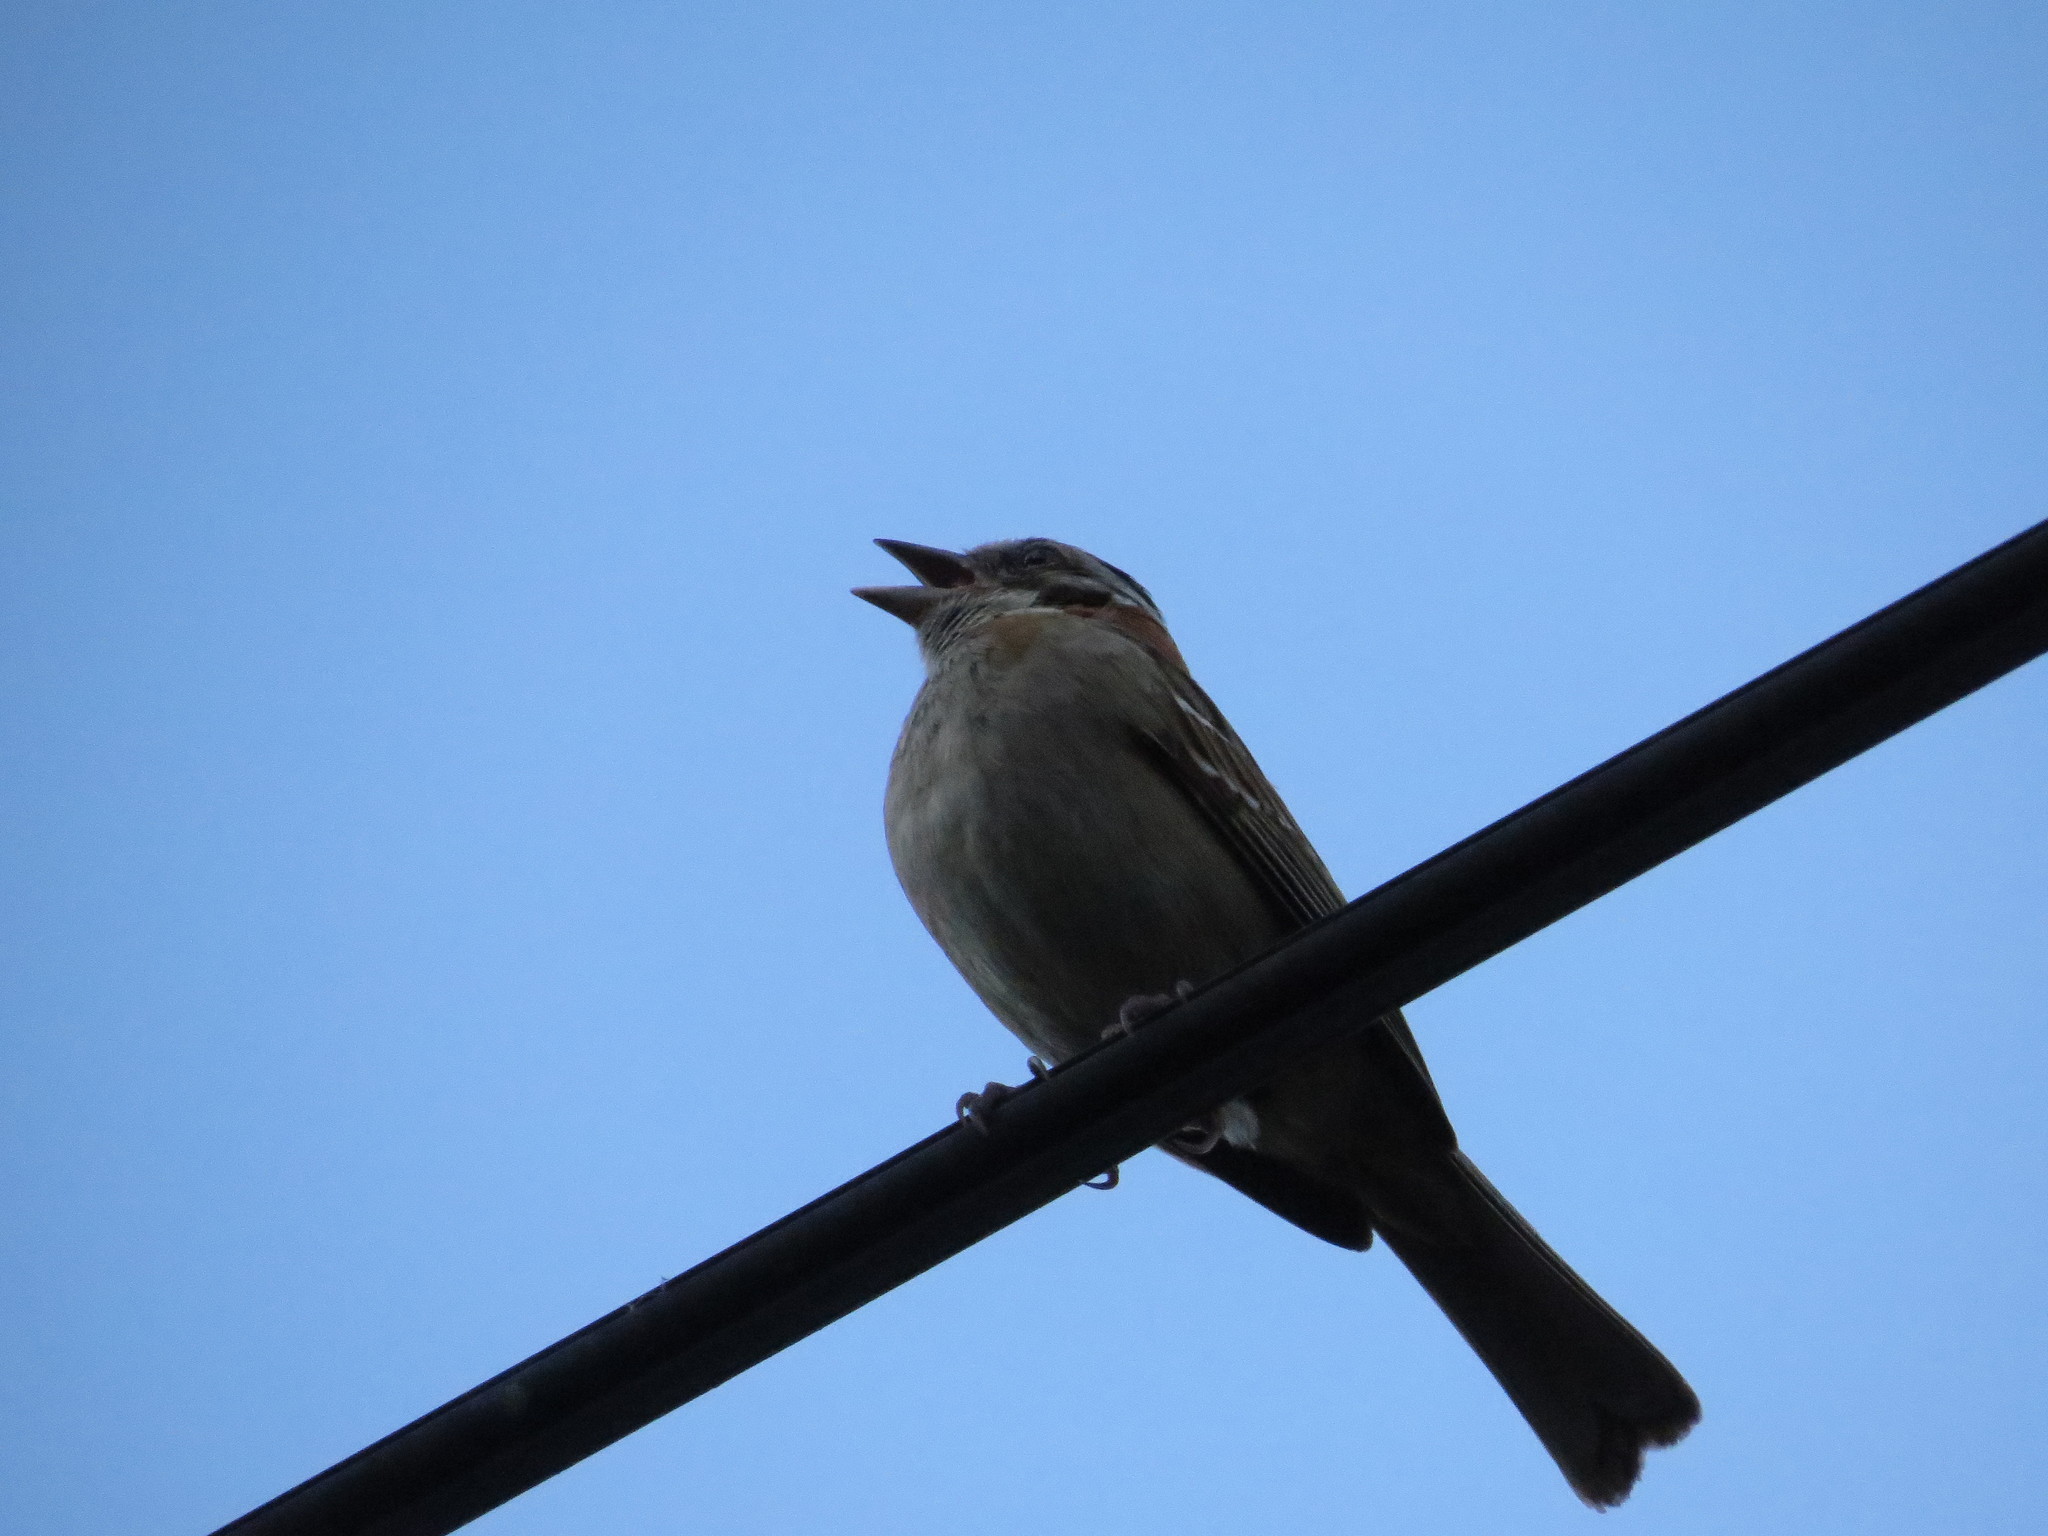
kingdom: Animalia
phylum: Chordata
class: Aves
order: Passeriformes
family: Passerellidae
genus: Zonotrichia
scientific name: Zonotrichia capensis
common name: Rufous-collared sparrow
